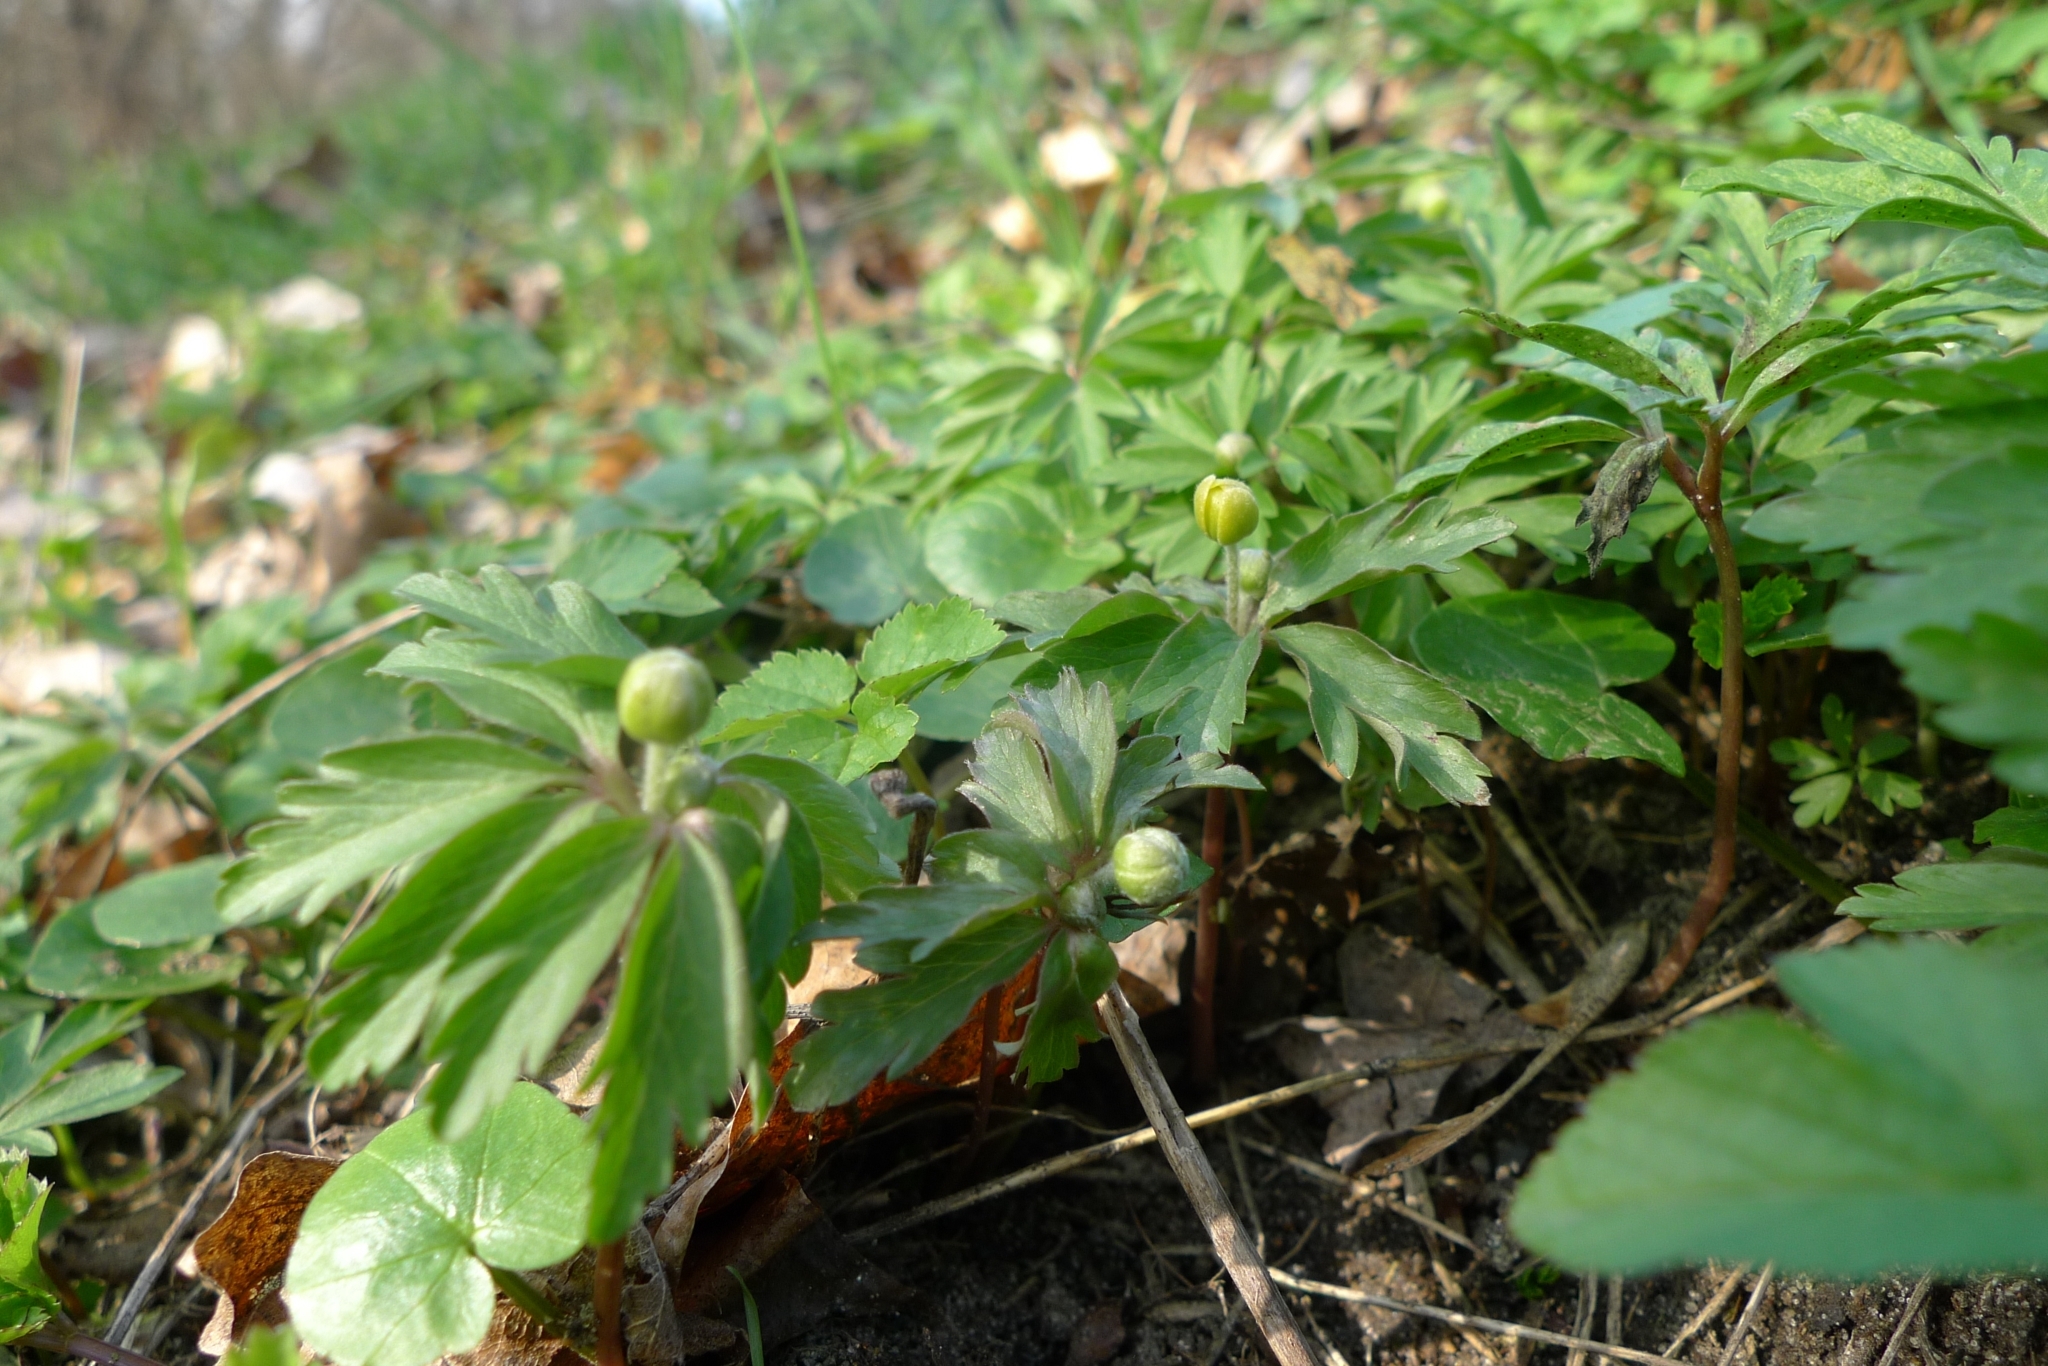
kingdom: Plantae
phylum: Tracheophyta
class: Magnoliopsida
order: Ranunculales
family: Ranunculaceae
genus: Anemone
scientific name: Anemone ranunculoides
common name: Yellow anemone
